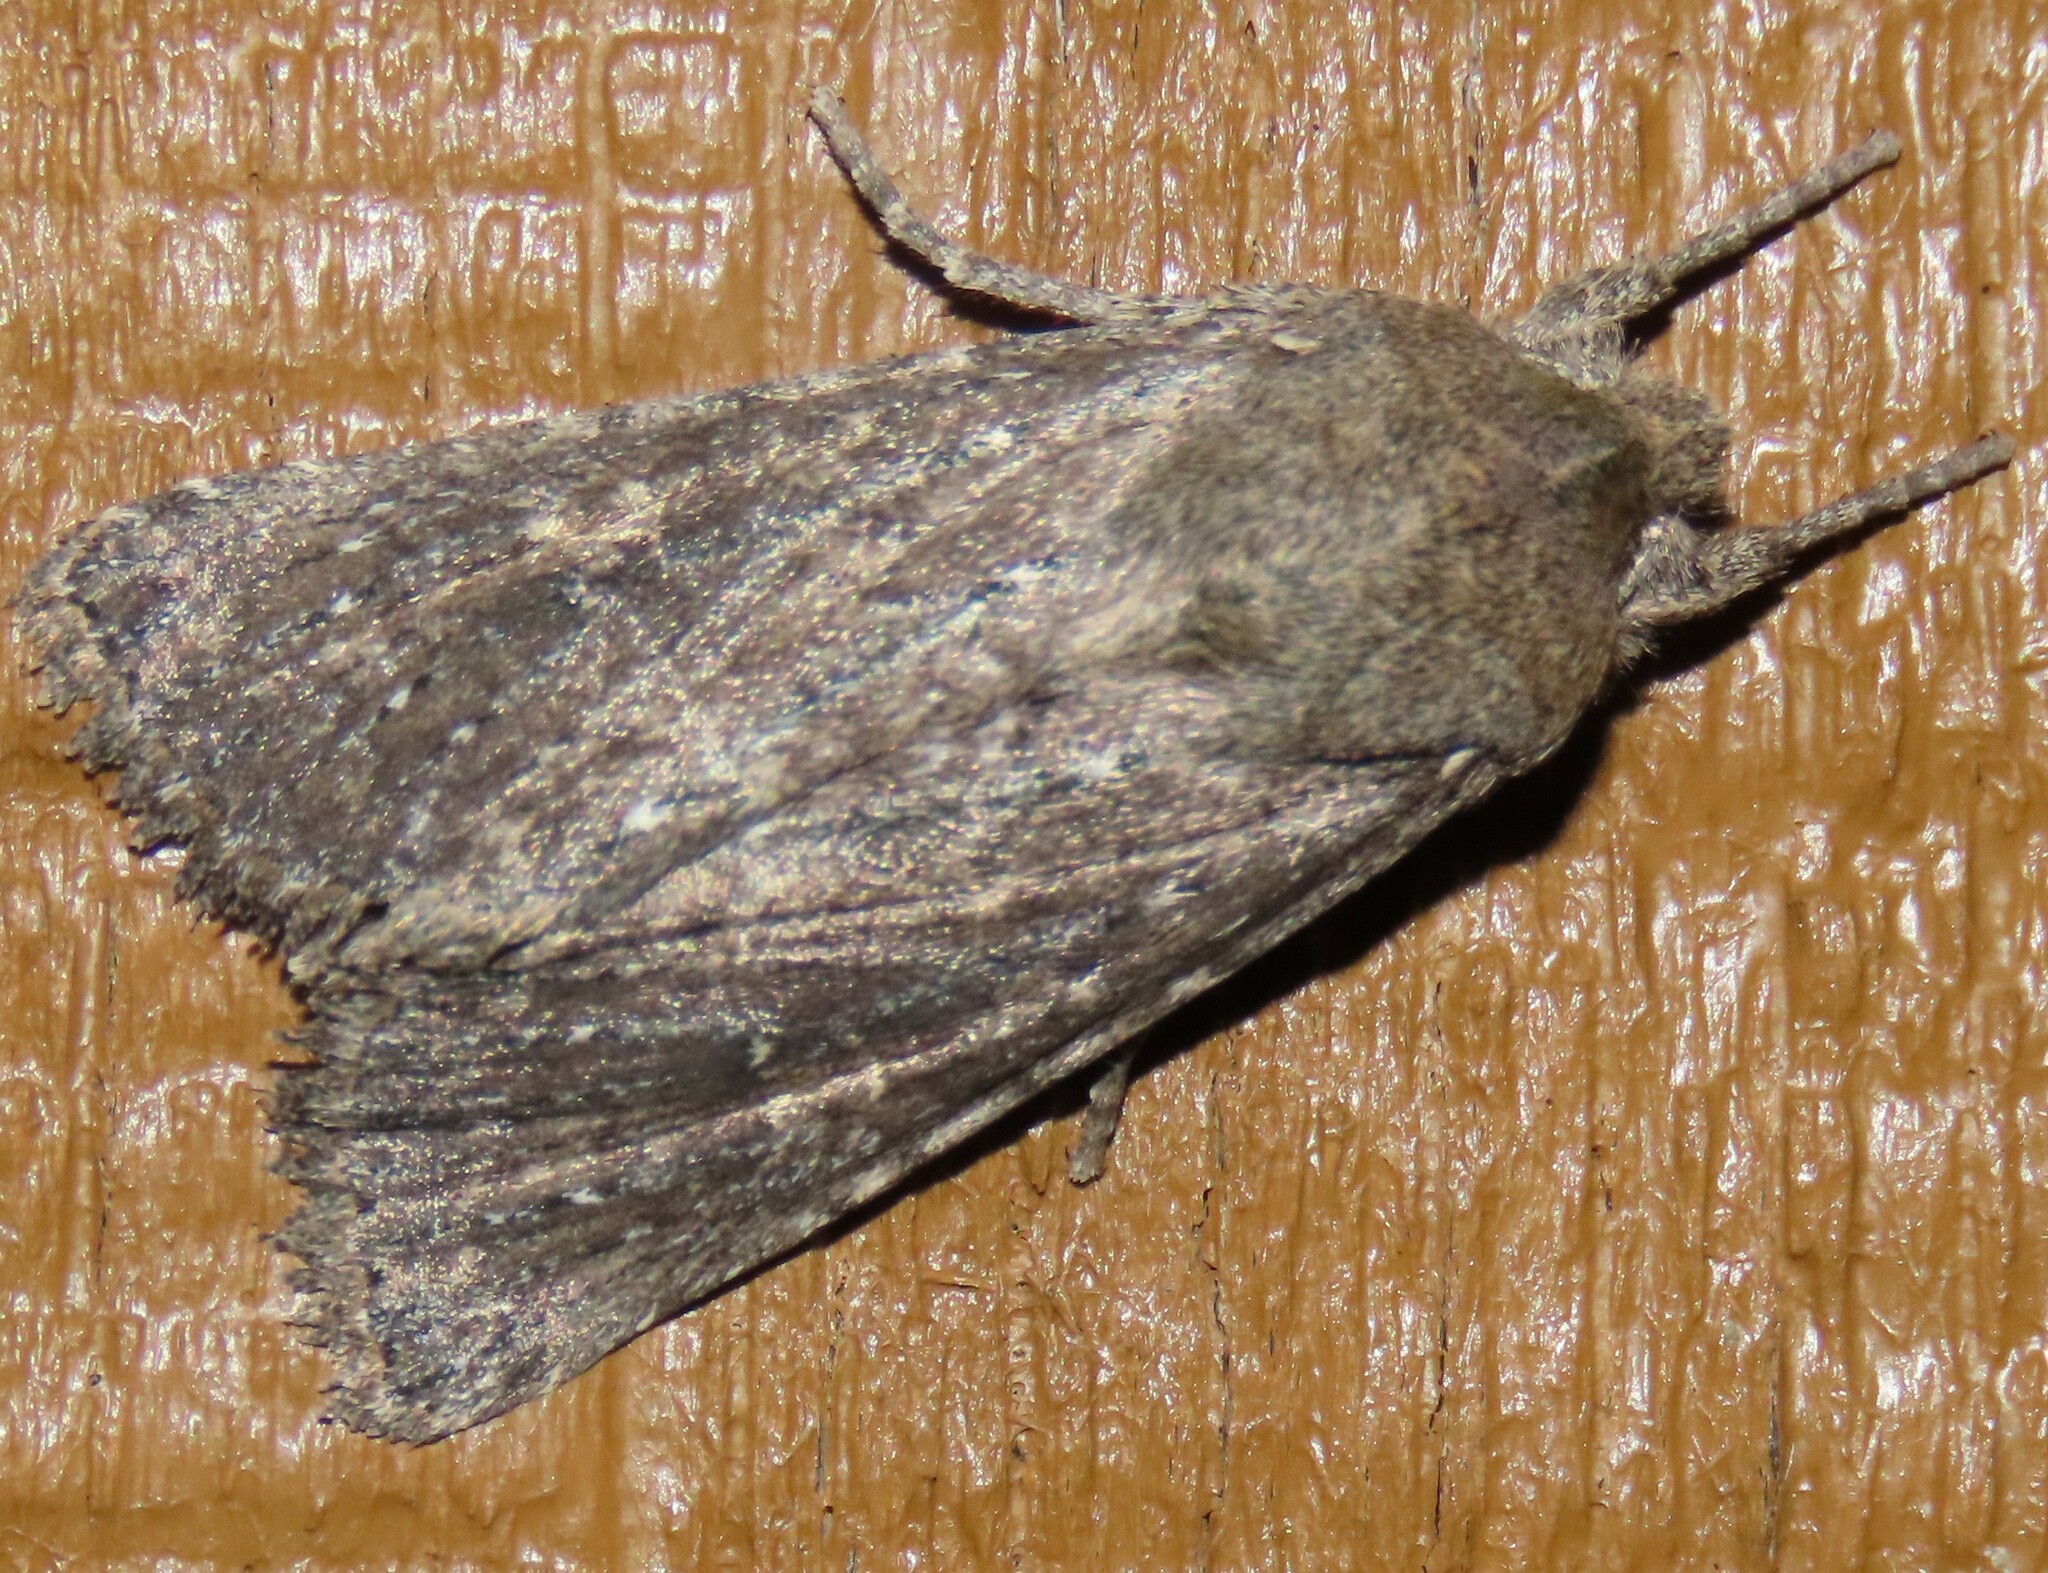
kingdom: Animalia
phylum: Arthropoda
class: Insecta
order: Lepidoptera
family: Noctuidae
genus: Physetica
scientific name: Physetica
